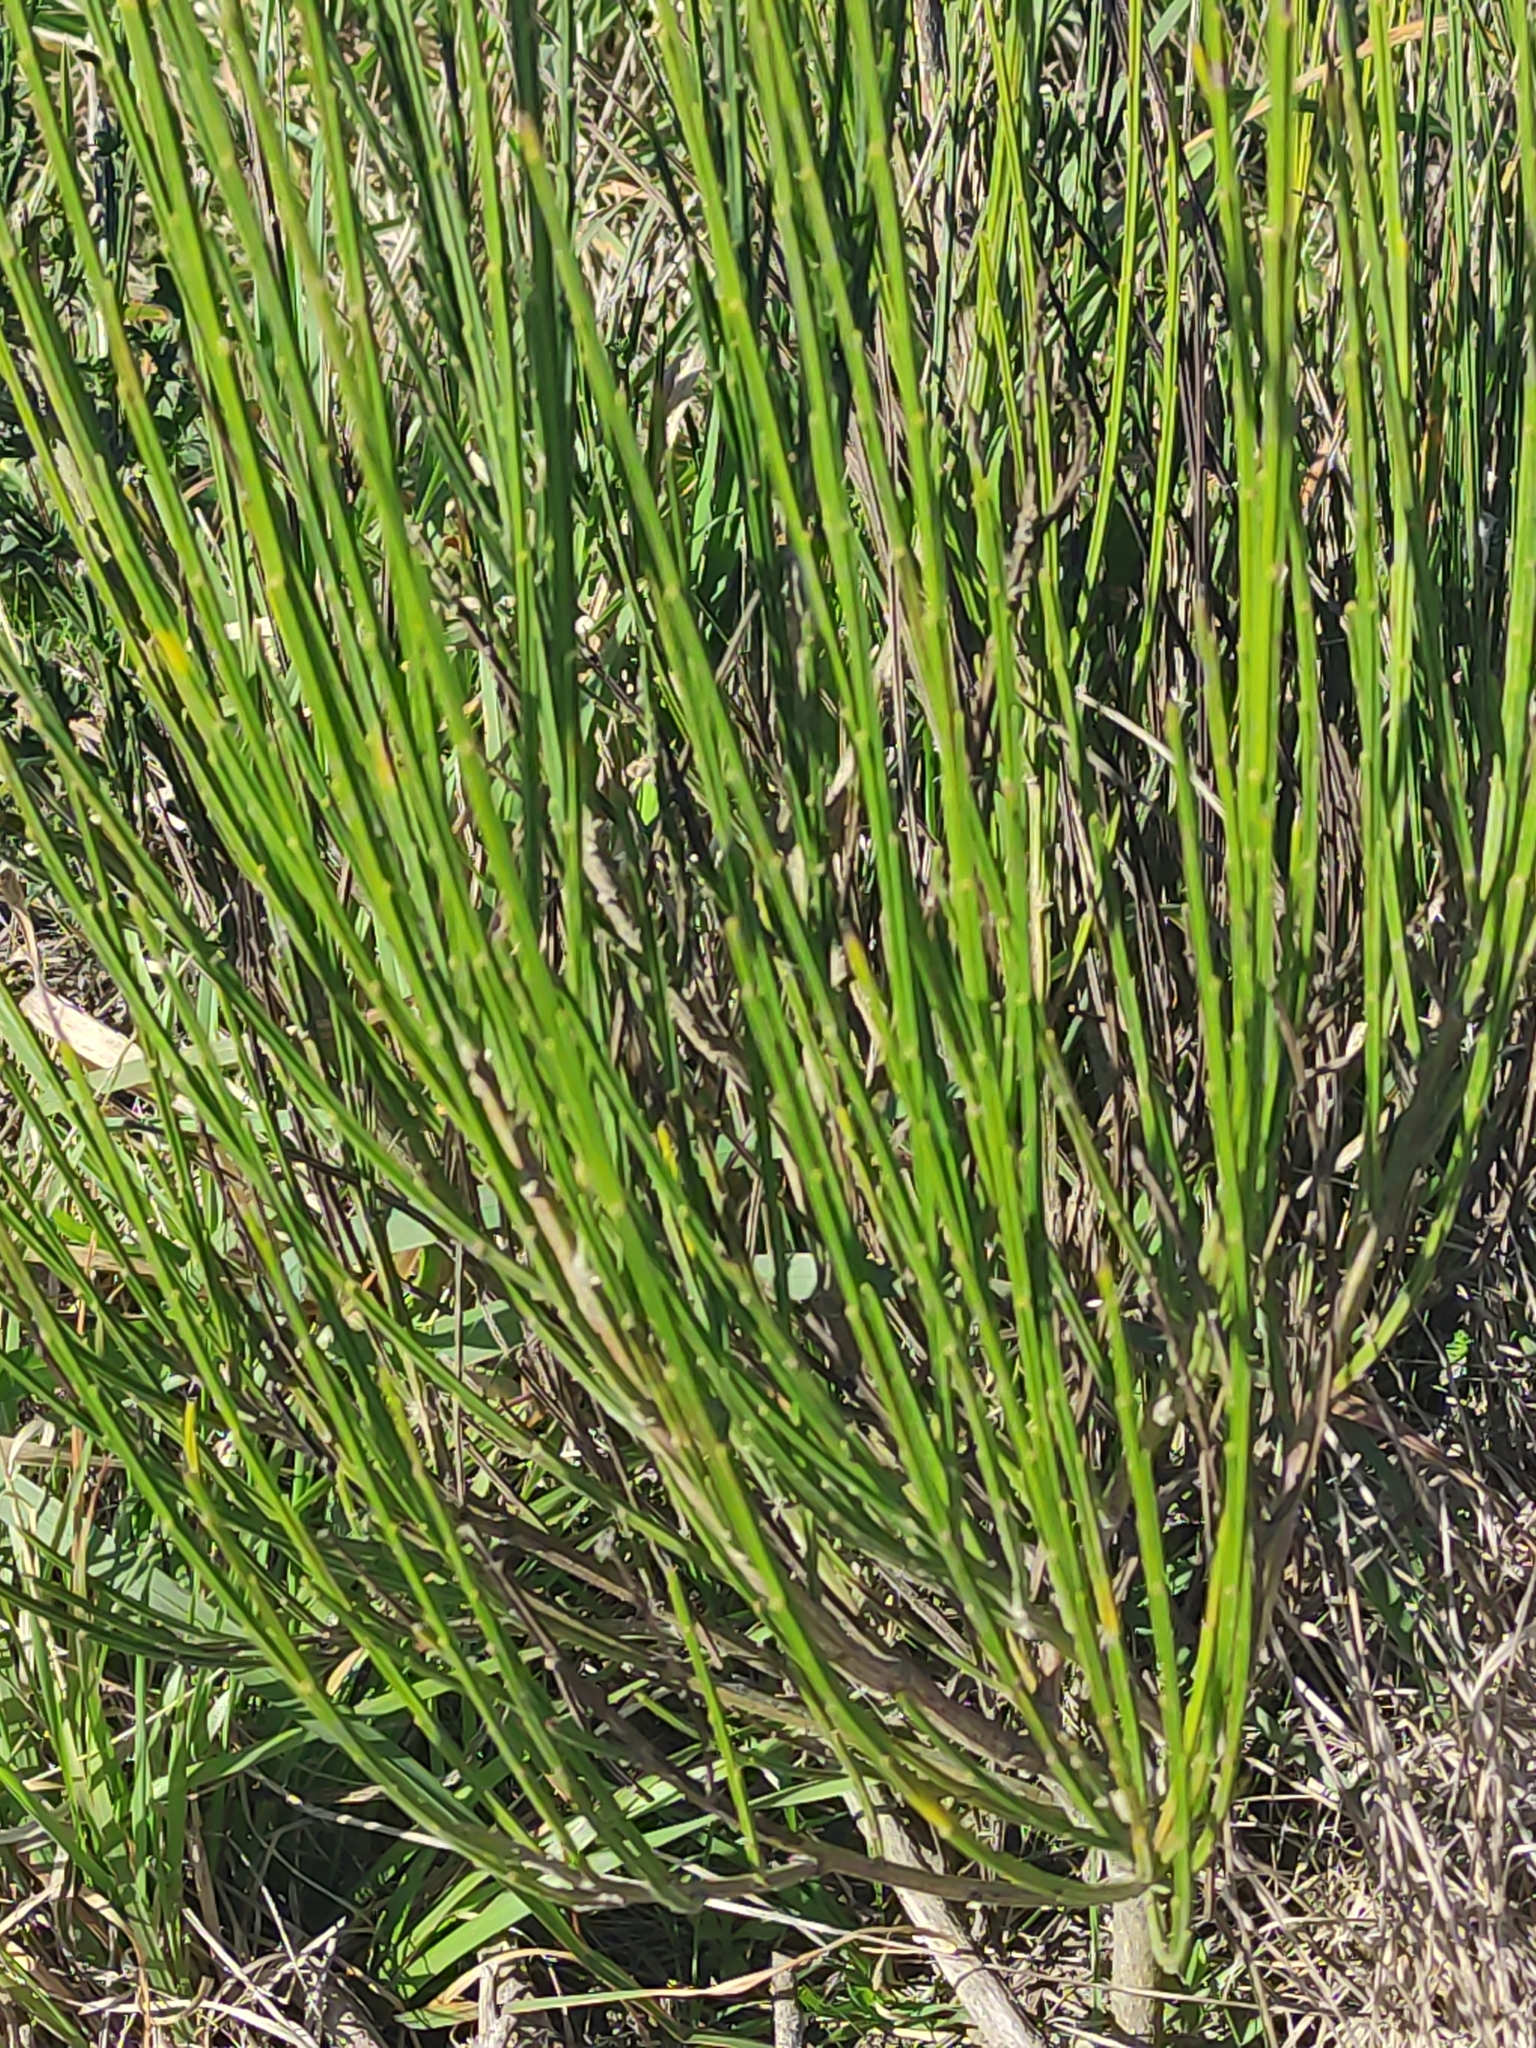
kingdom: Plantae
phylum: Tracheophyta
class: Magnoliopsida
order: Fabales
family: Fabaceae
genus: Cytisus
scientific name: Cytisus scoparius
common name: Scotch broom
